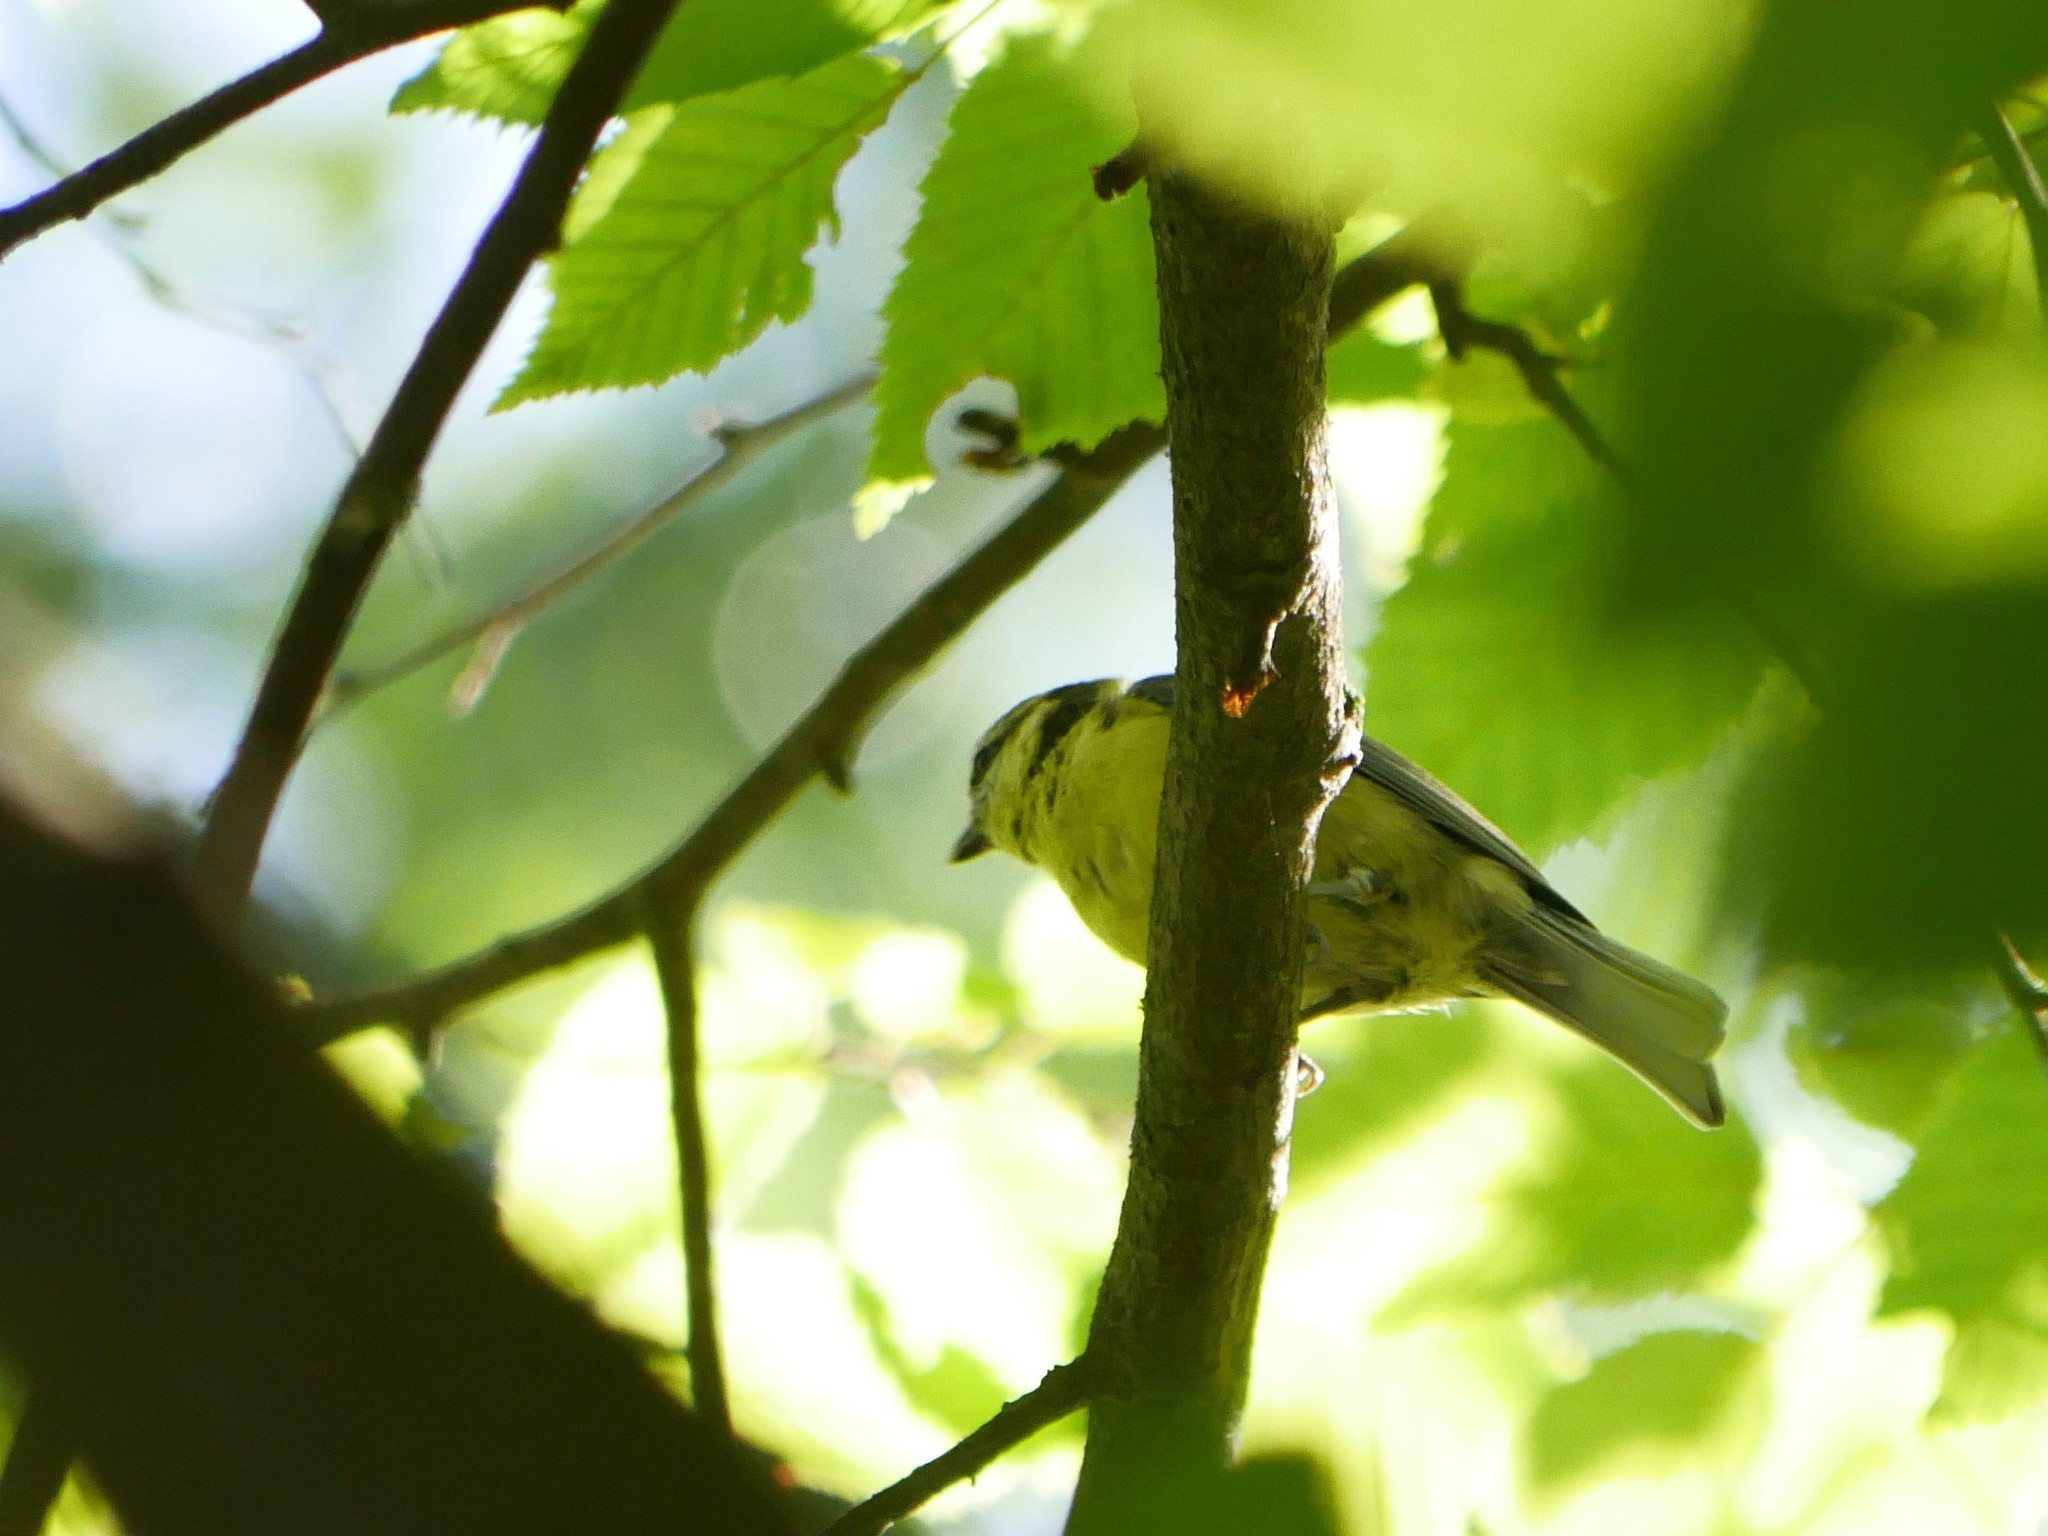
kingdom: Animalia
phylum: Chordata
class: Aves
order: Passeriformes
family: Paridae
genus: Cyanistes
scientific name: Cyanistes caeruleus
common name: Eurasian blue tit
